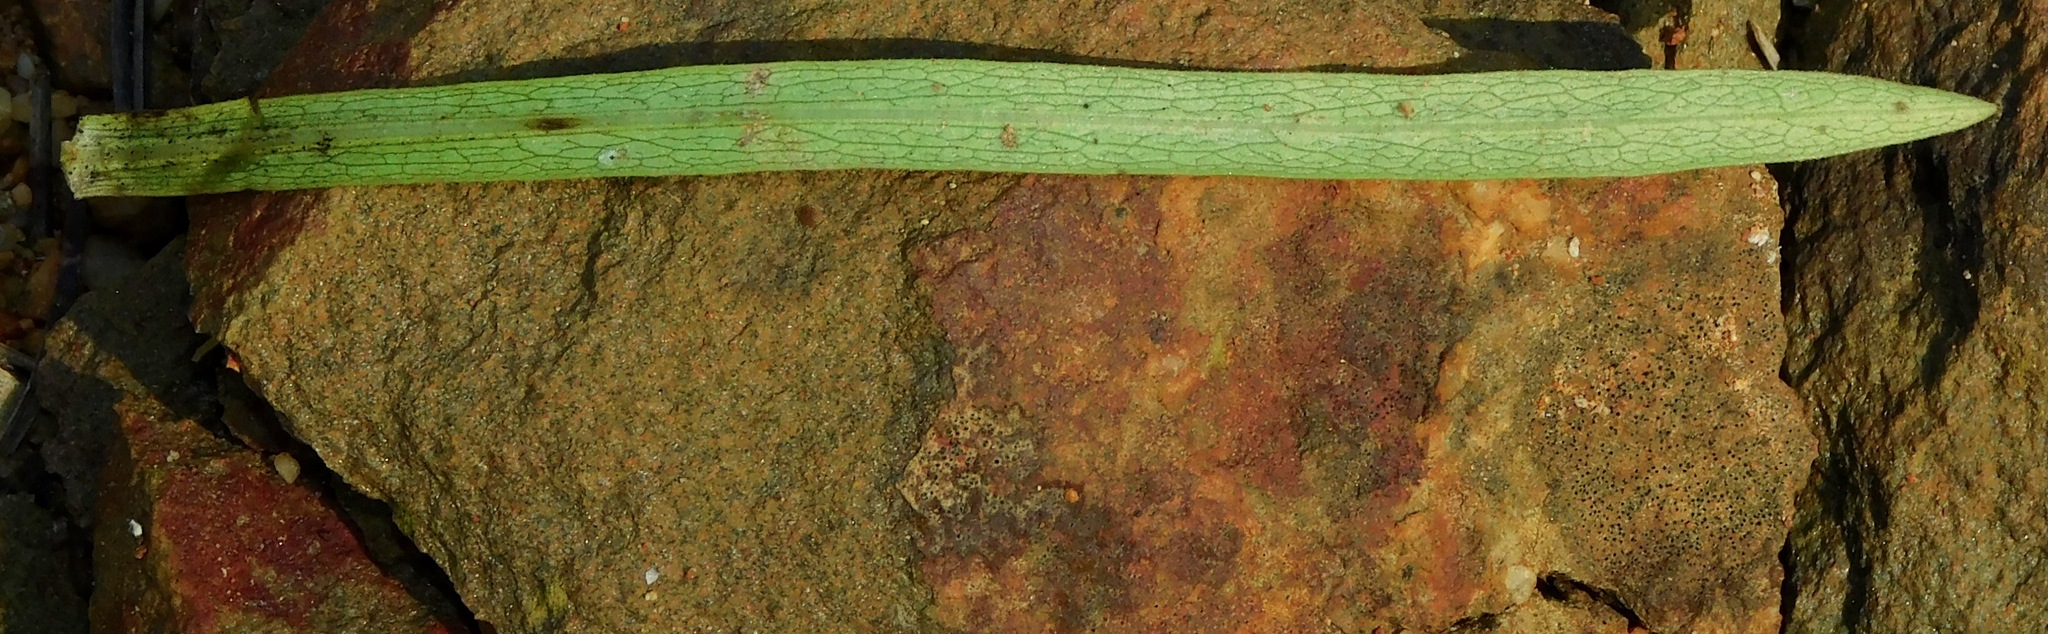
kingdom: Plantae
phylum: Tracheophyta
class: Magnoliopsida
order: Asterales
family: Asteraceae
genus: Symphyotrichum
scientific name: Symphyotrichum dumosum
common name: Bushy aster
